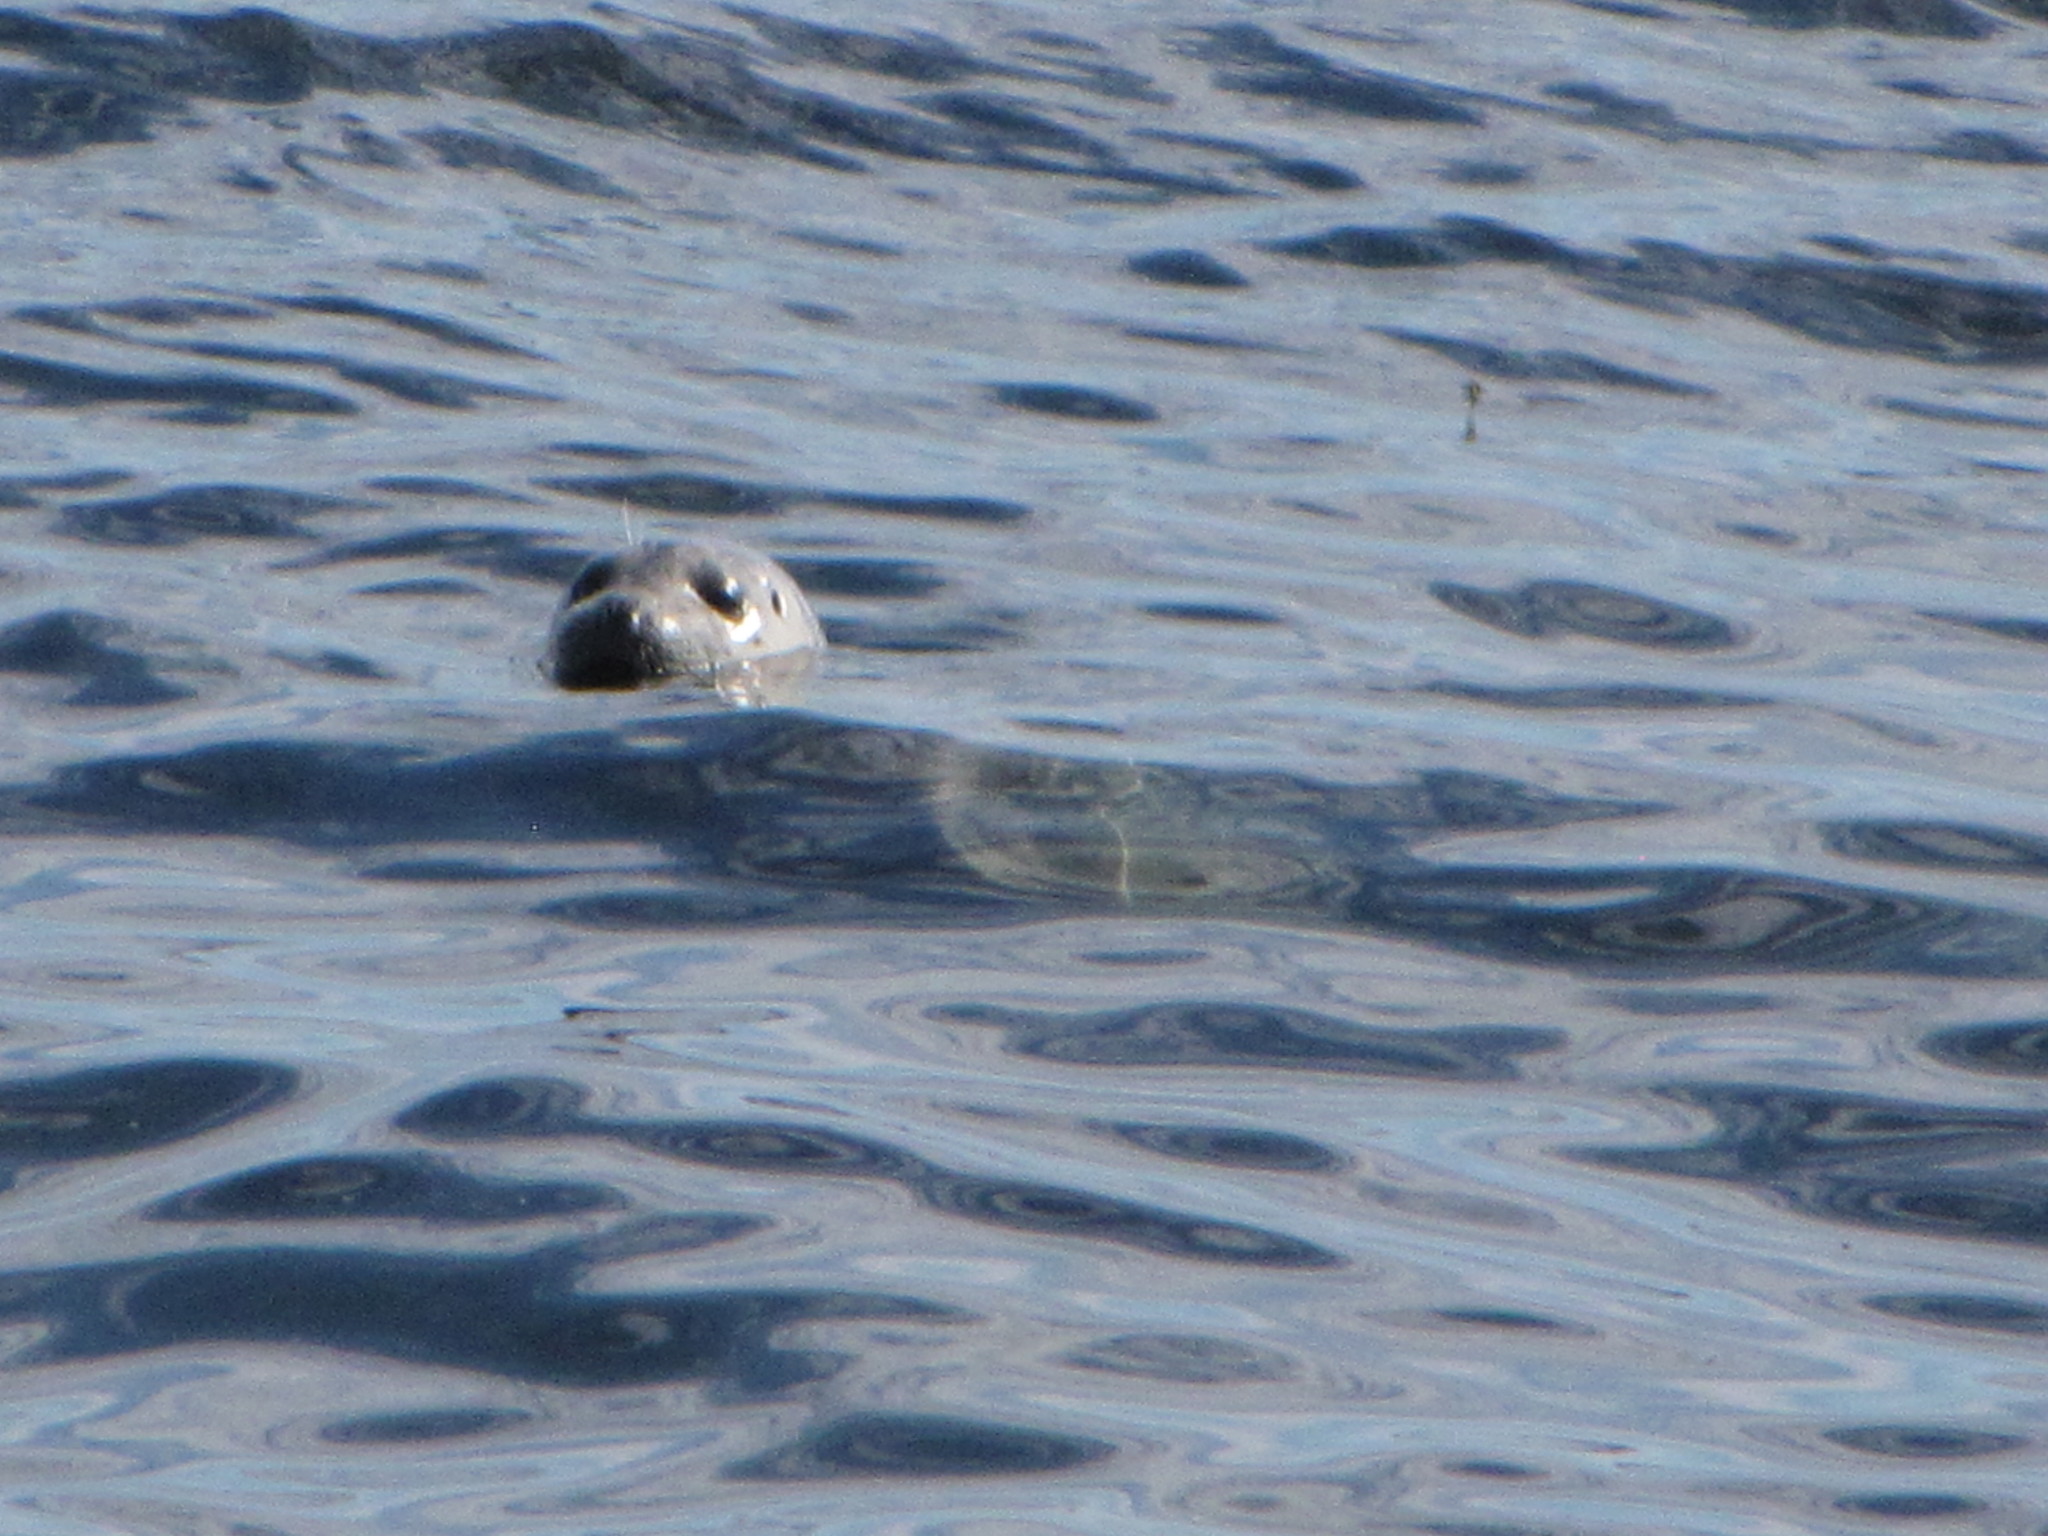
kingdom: Animalia
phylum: Chordata
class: Mammalia
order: Carnivora
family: Phocidae
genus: Phoca
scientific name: Phoca vitulina
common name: Harbor seal
